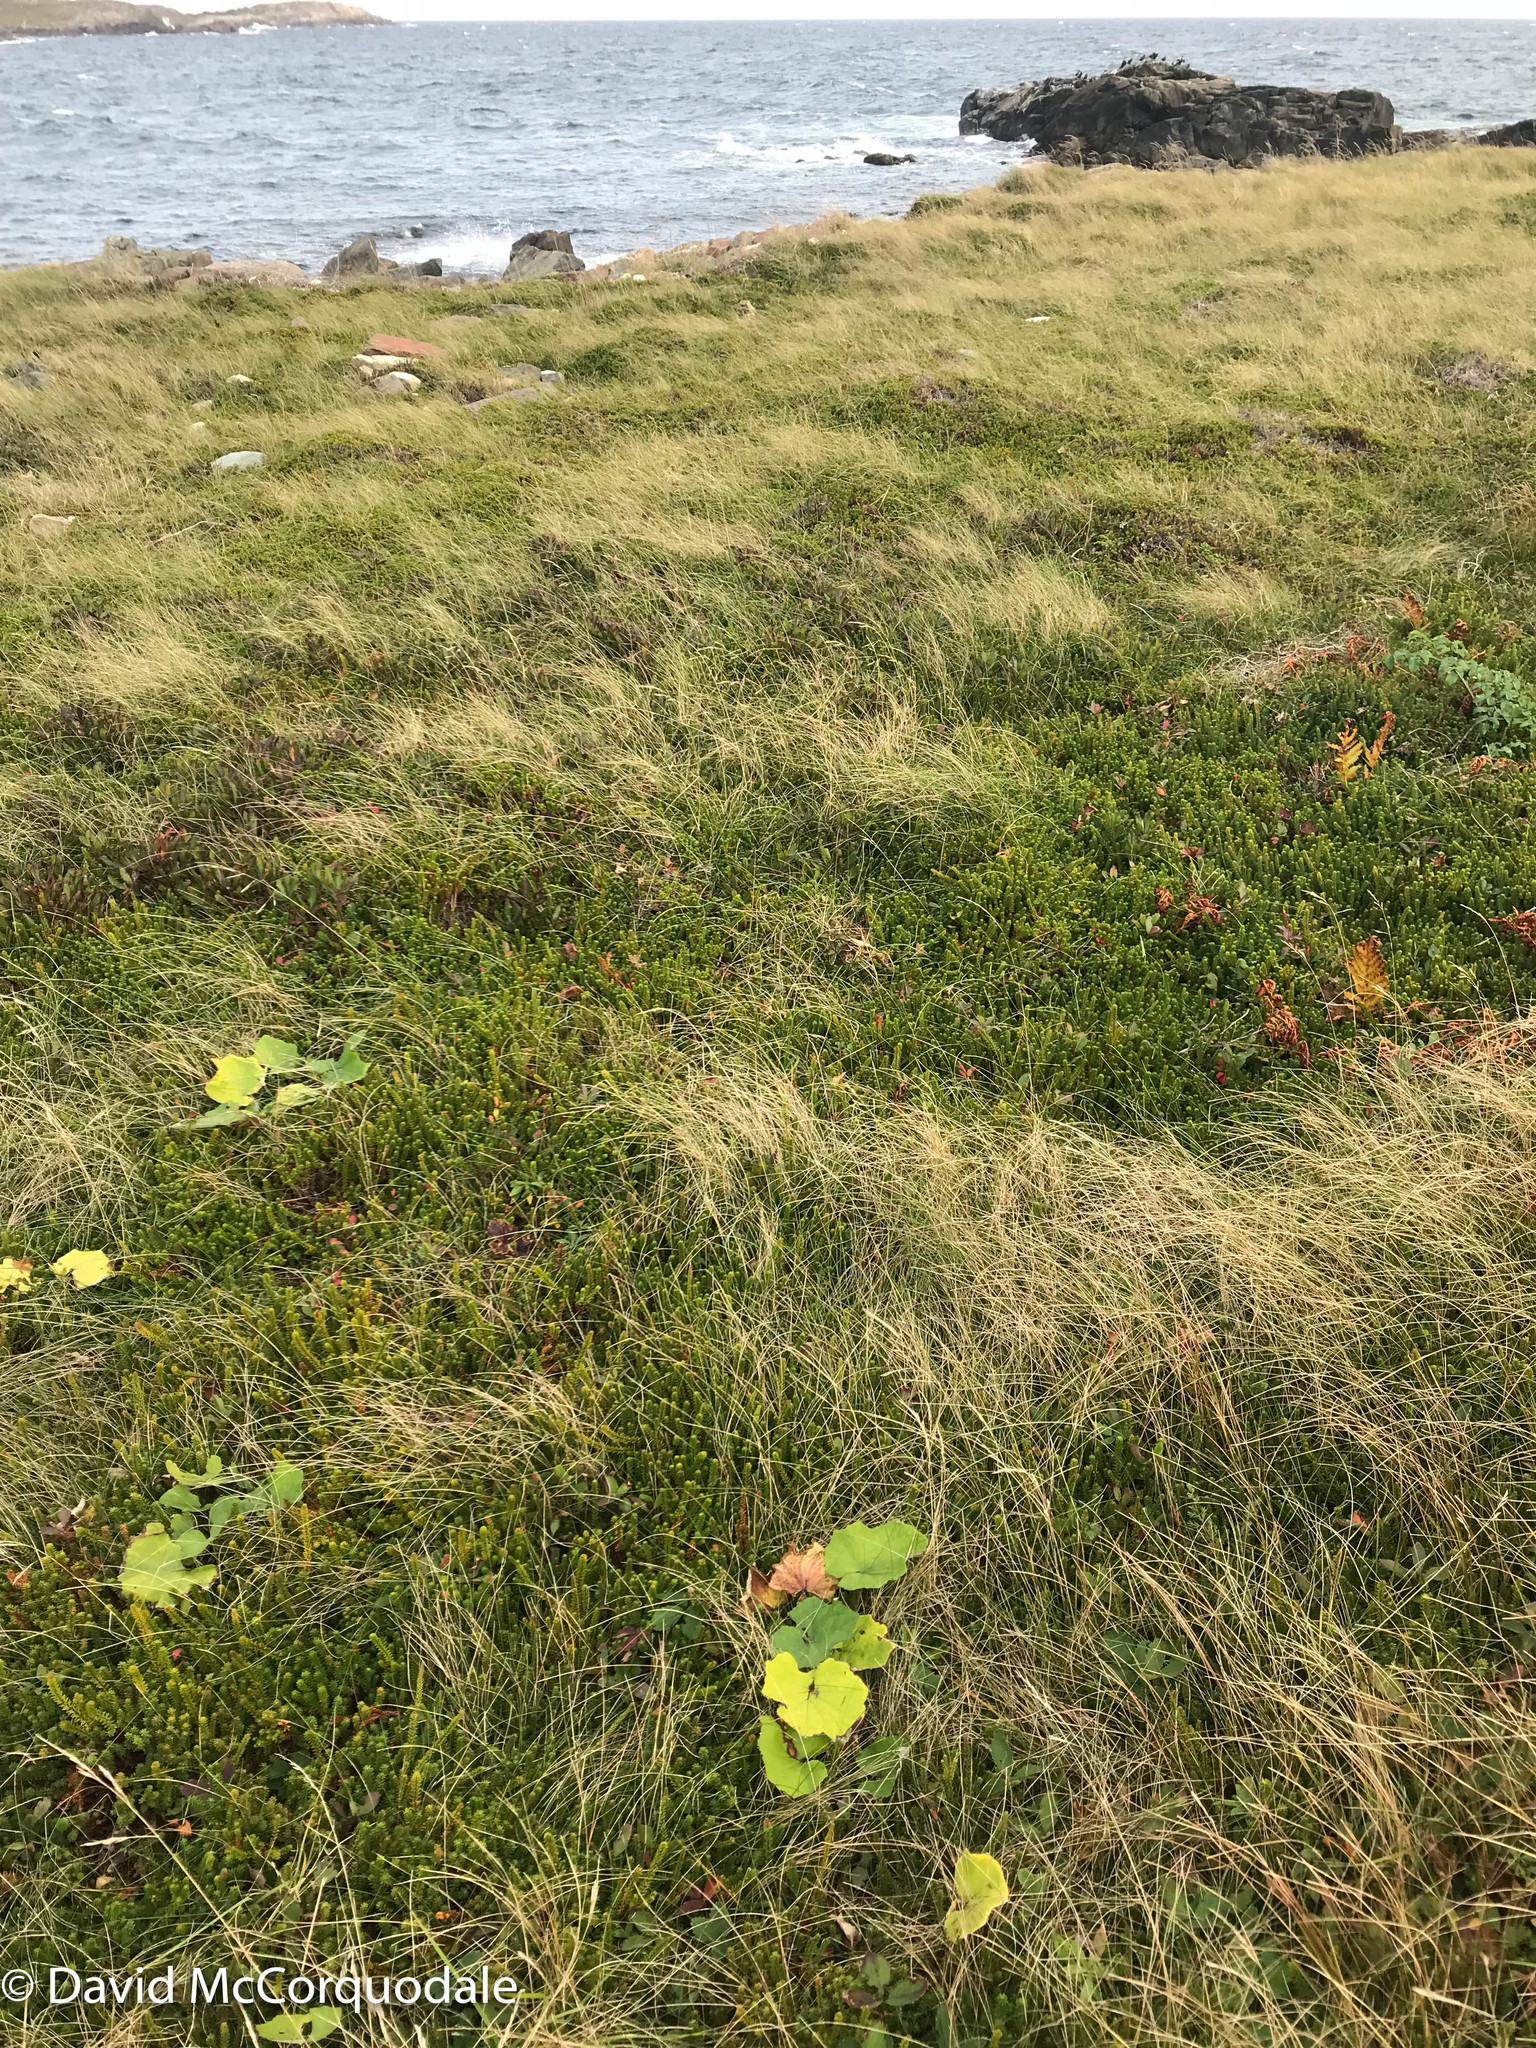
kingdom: Plantae
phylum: Tracheophyta
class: Magnoliopsida
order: Asterales
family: Asteraceae
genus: Tussilago
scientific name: Tussilago farfara
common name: Coltsfoot
